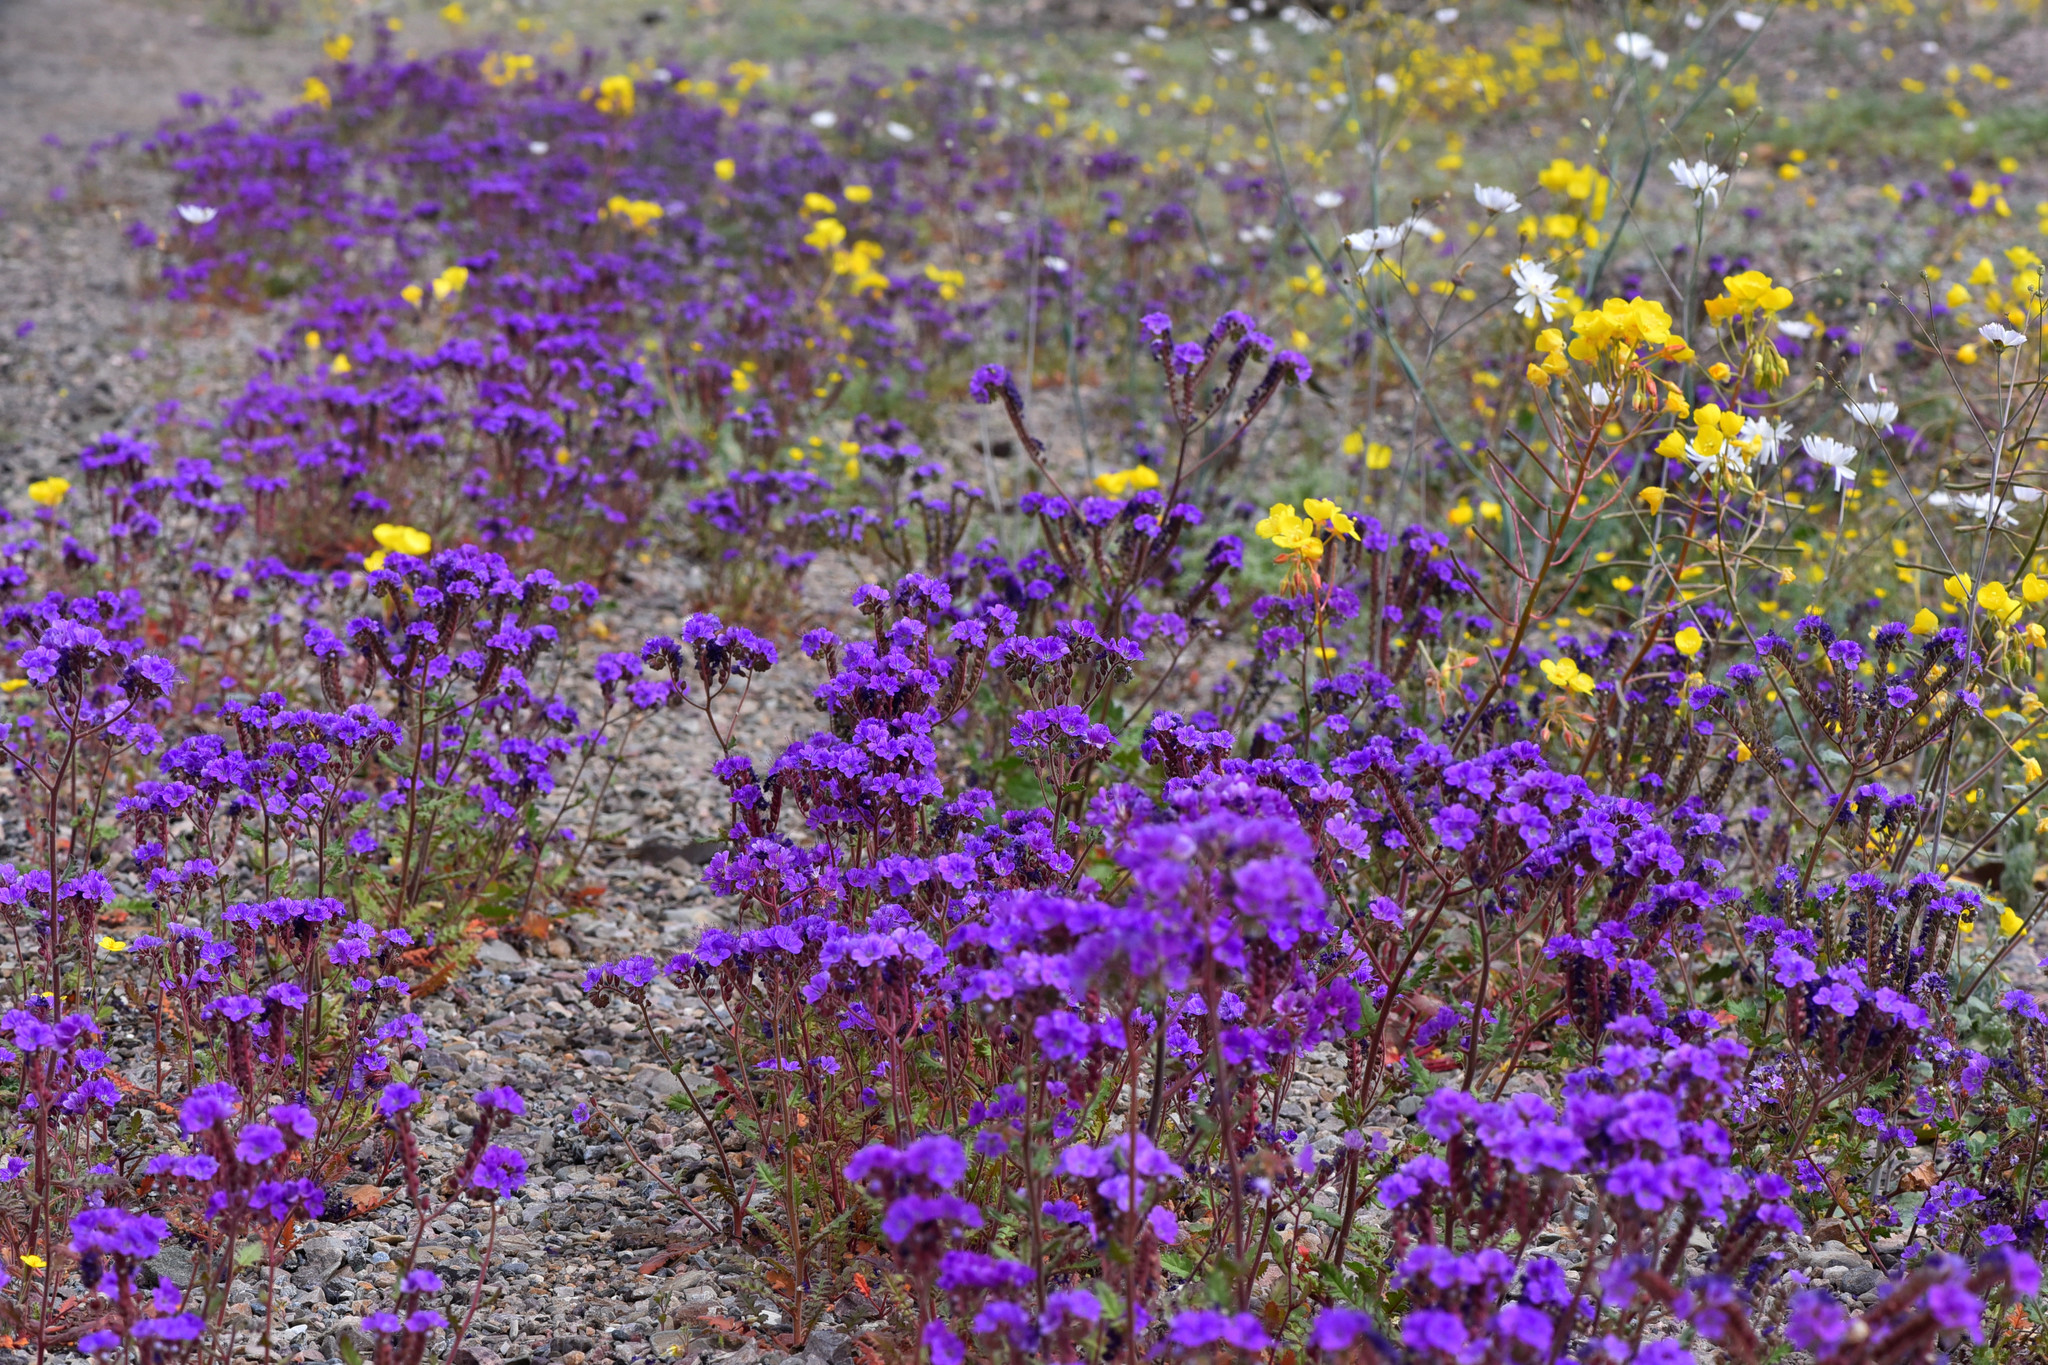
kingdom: Plantae
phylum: Tracheophyta
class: Magnoliopsida
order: Boraginales
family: Hydrophyllaceae
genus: Phacelia
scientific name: Phacelia crenulata
